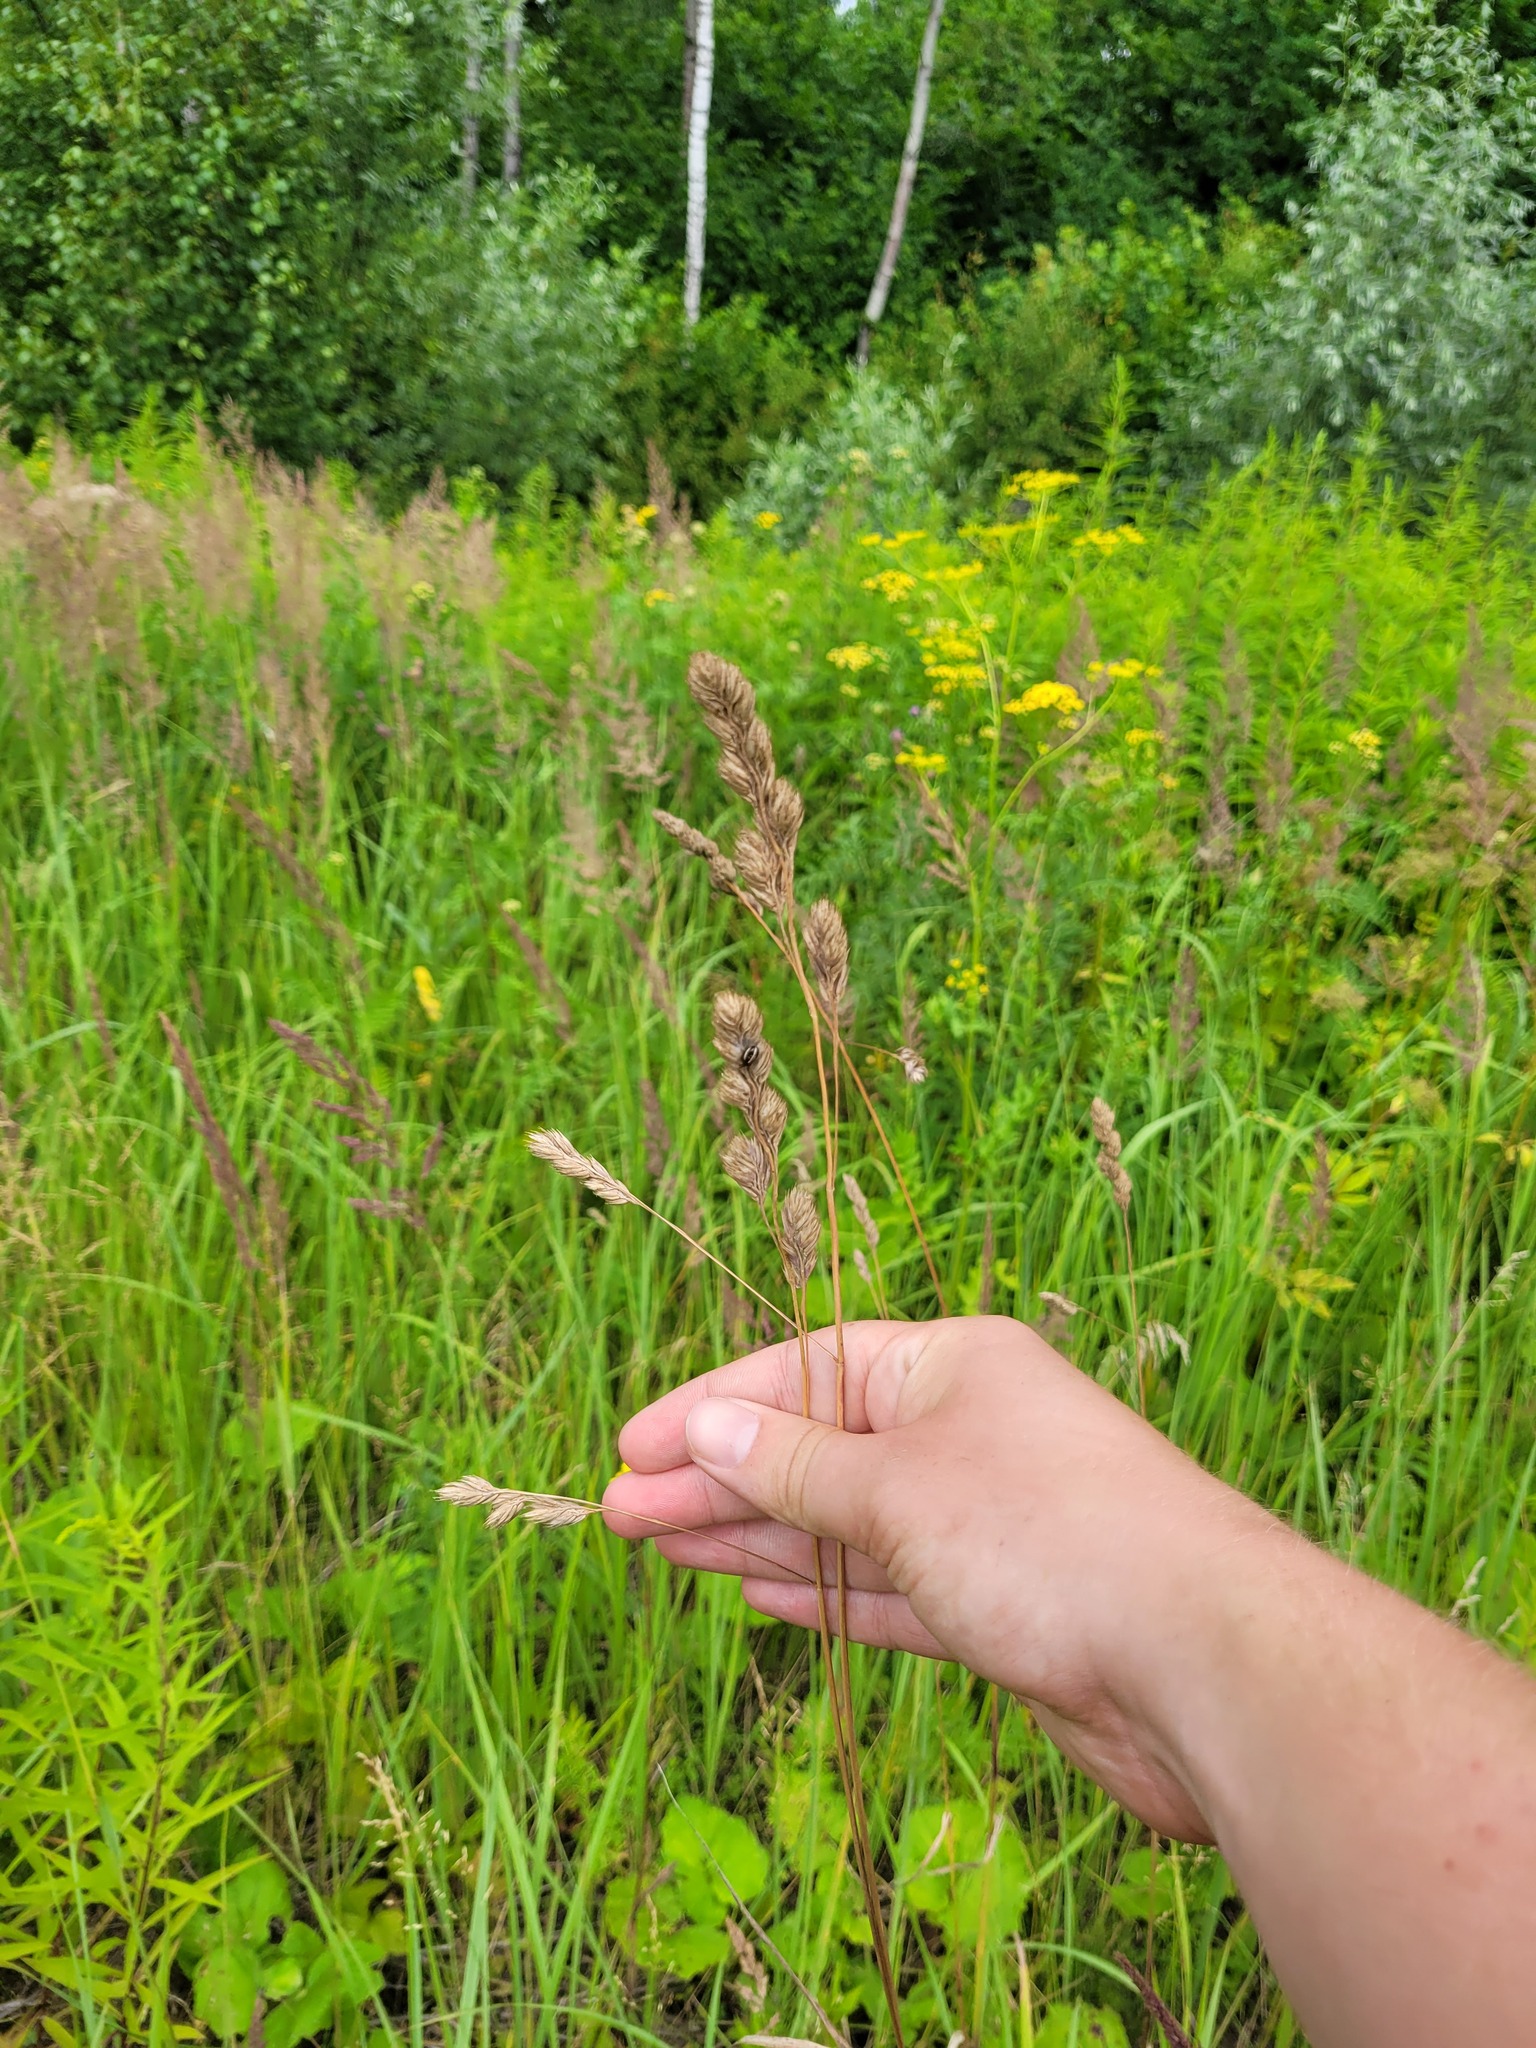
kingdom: Plantae
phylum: Tracheophyta
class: Liliopsida
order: Poales
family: Poaceae
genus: Dactylis
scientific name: Dactylis glomerata
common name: Orchardgrass
